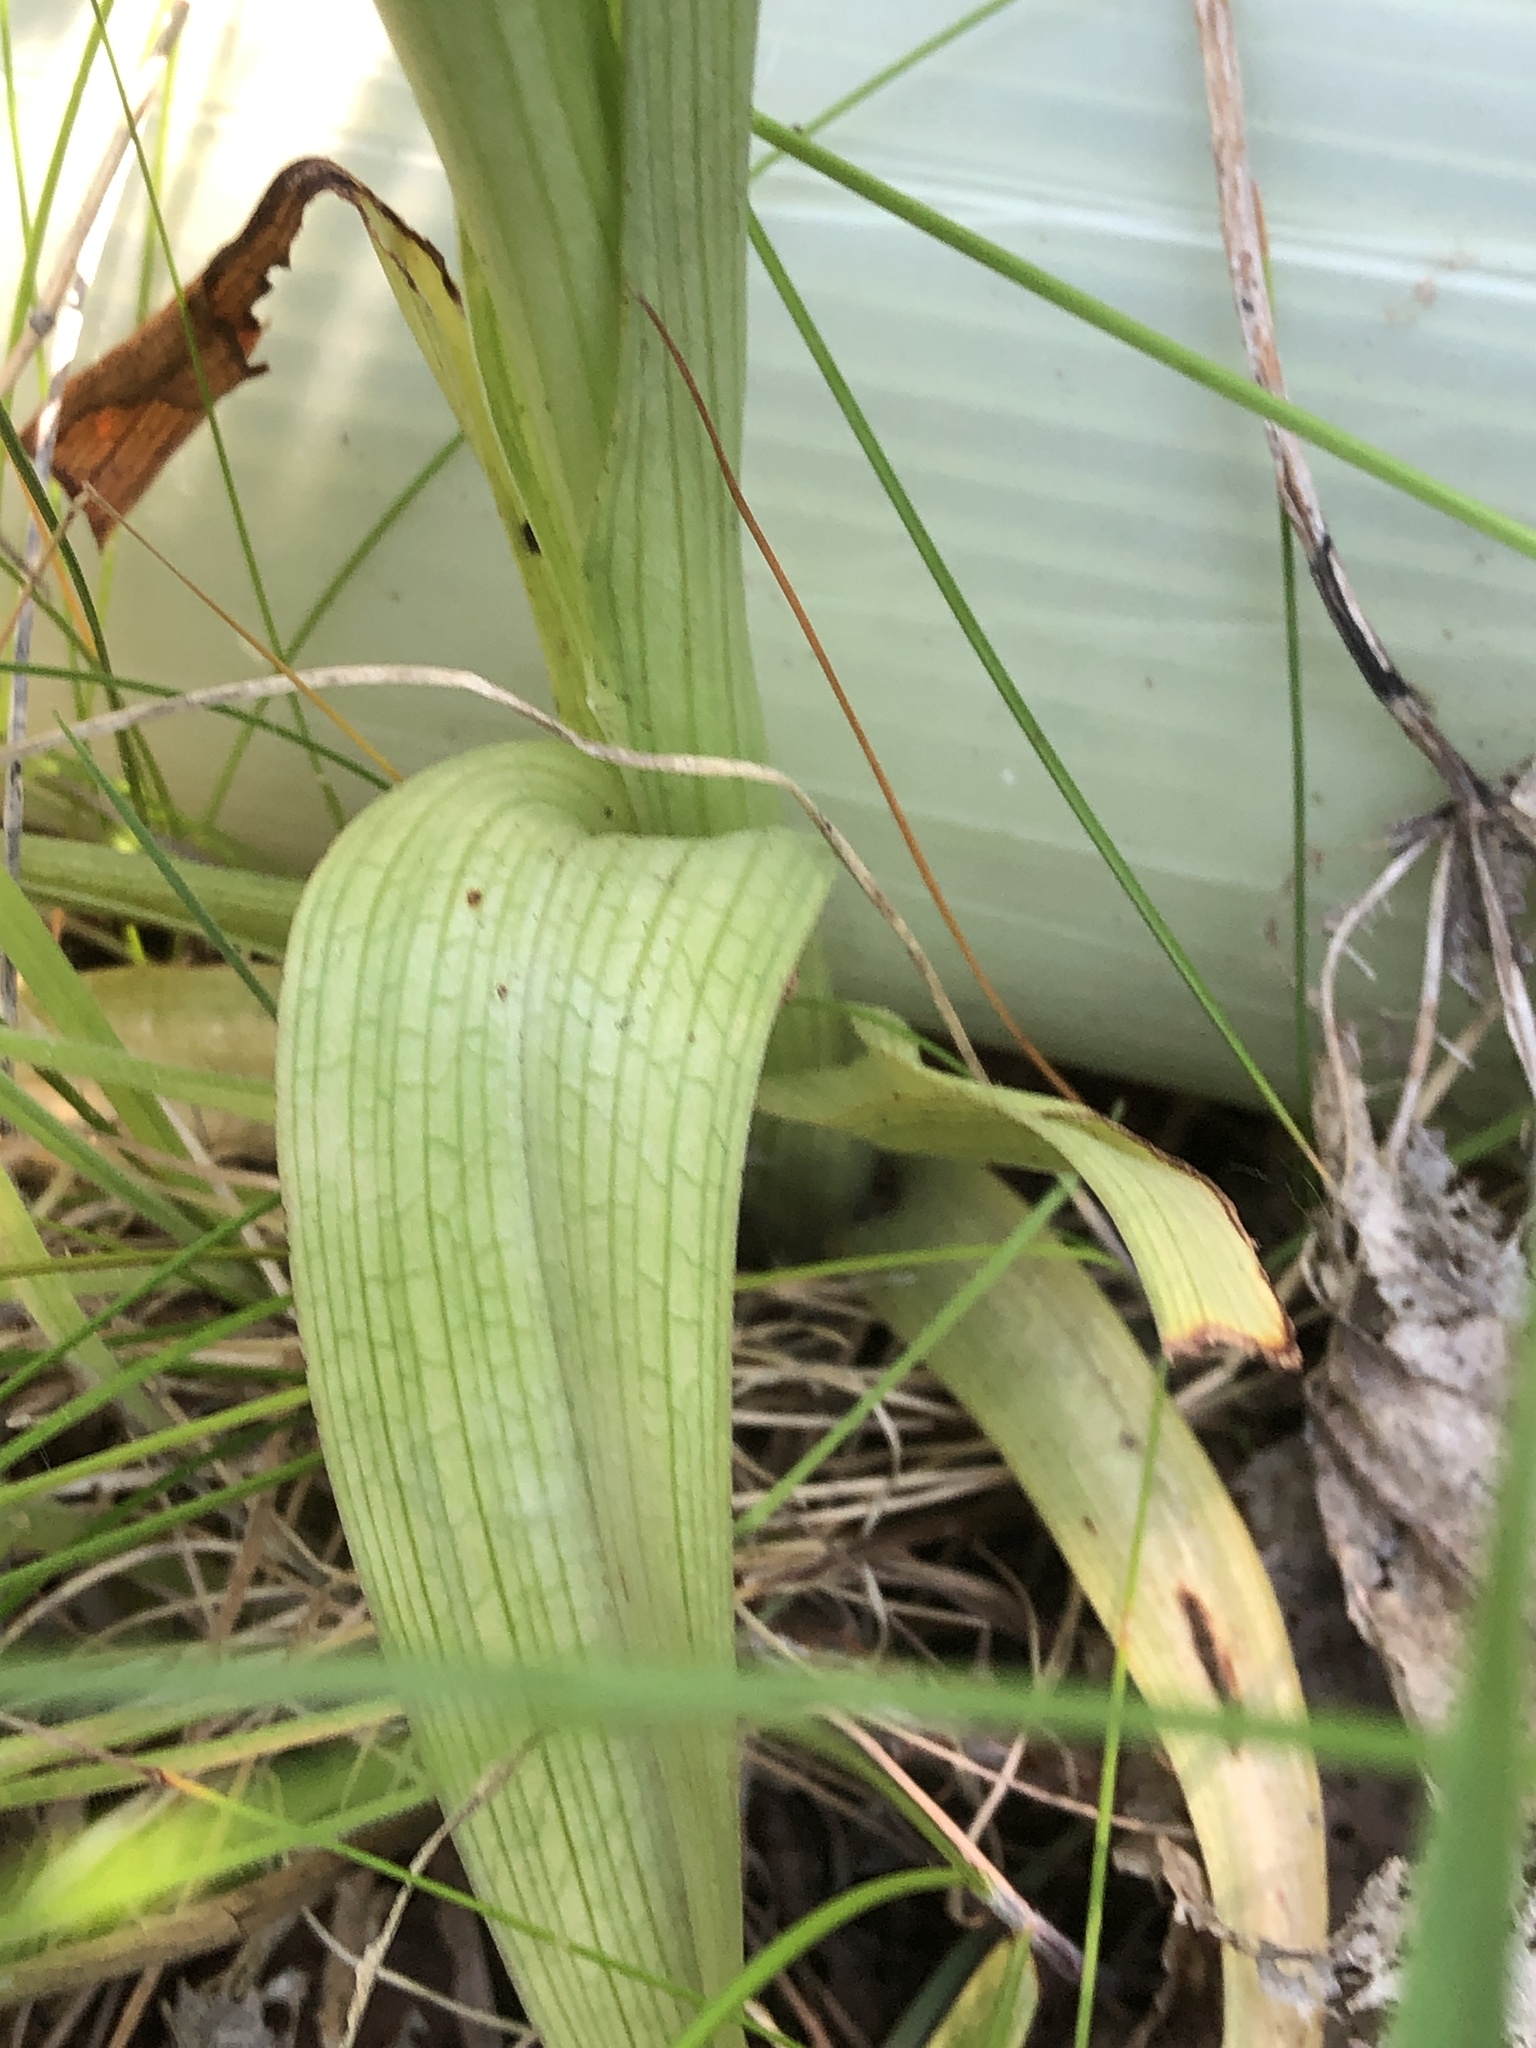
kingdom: Plantae
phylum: Tracheophyta
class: Liliopsida
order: Asparagales
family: Orchidaceae
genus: Anacamptis
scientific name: Anacamptis pyramidalis
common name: Pyramidal orchid
